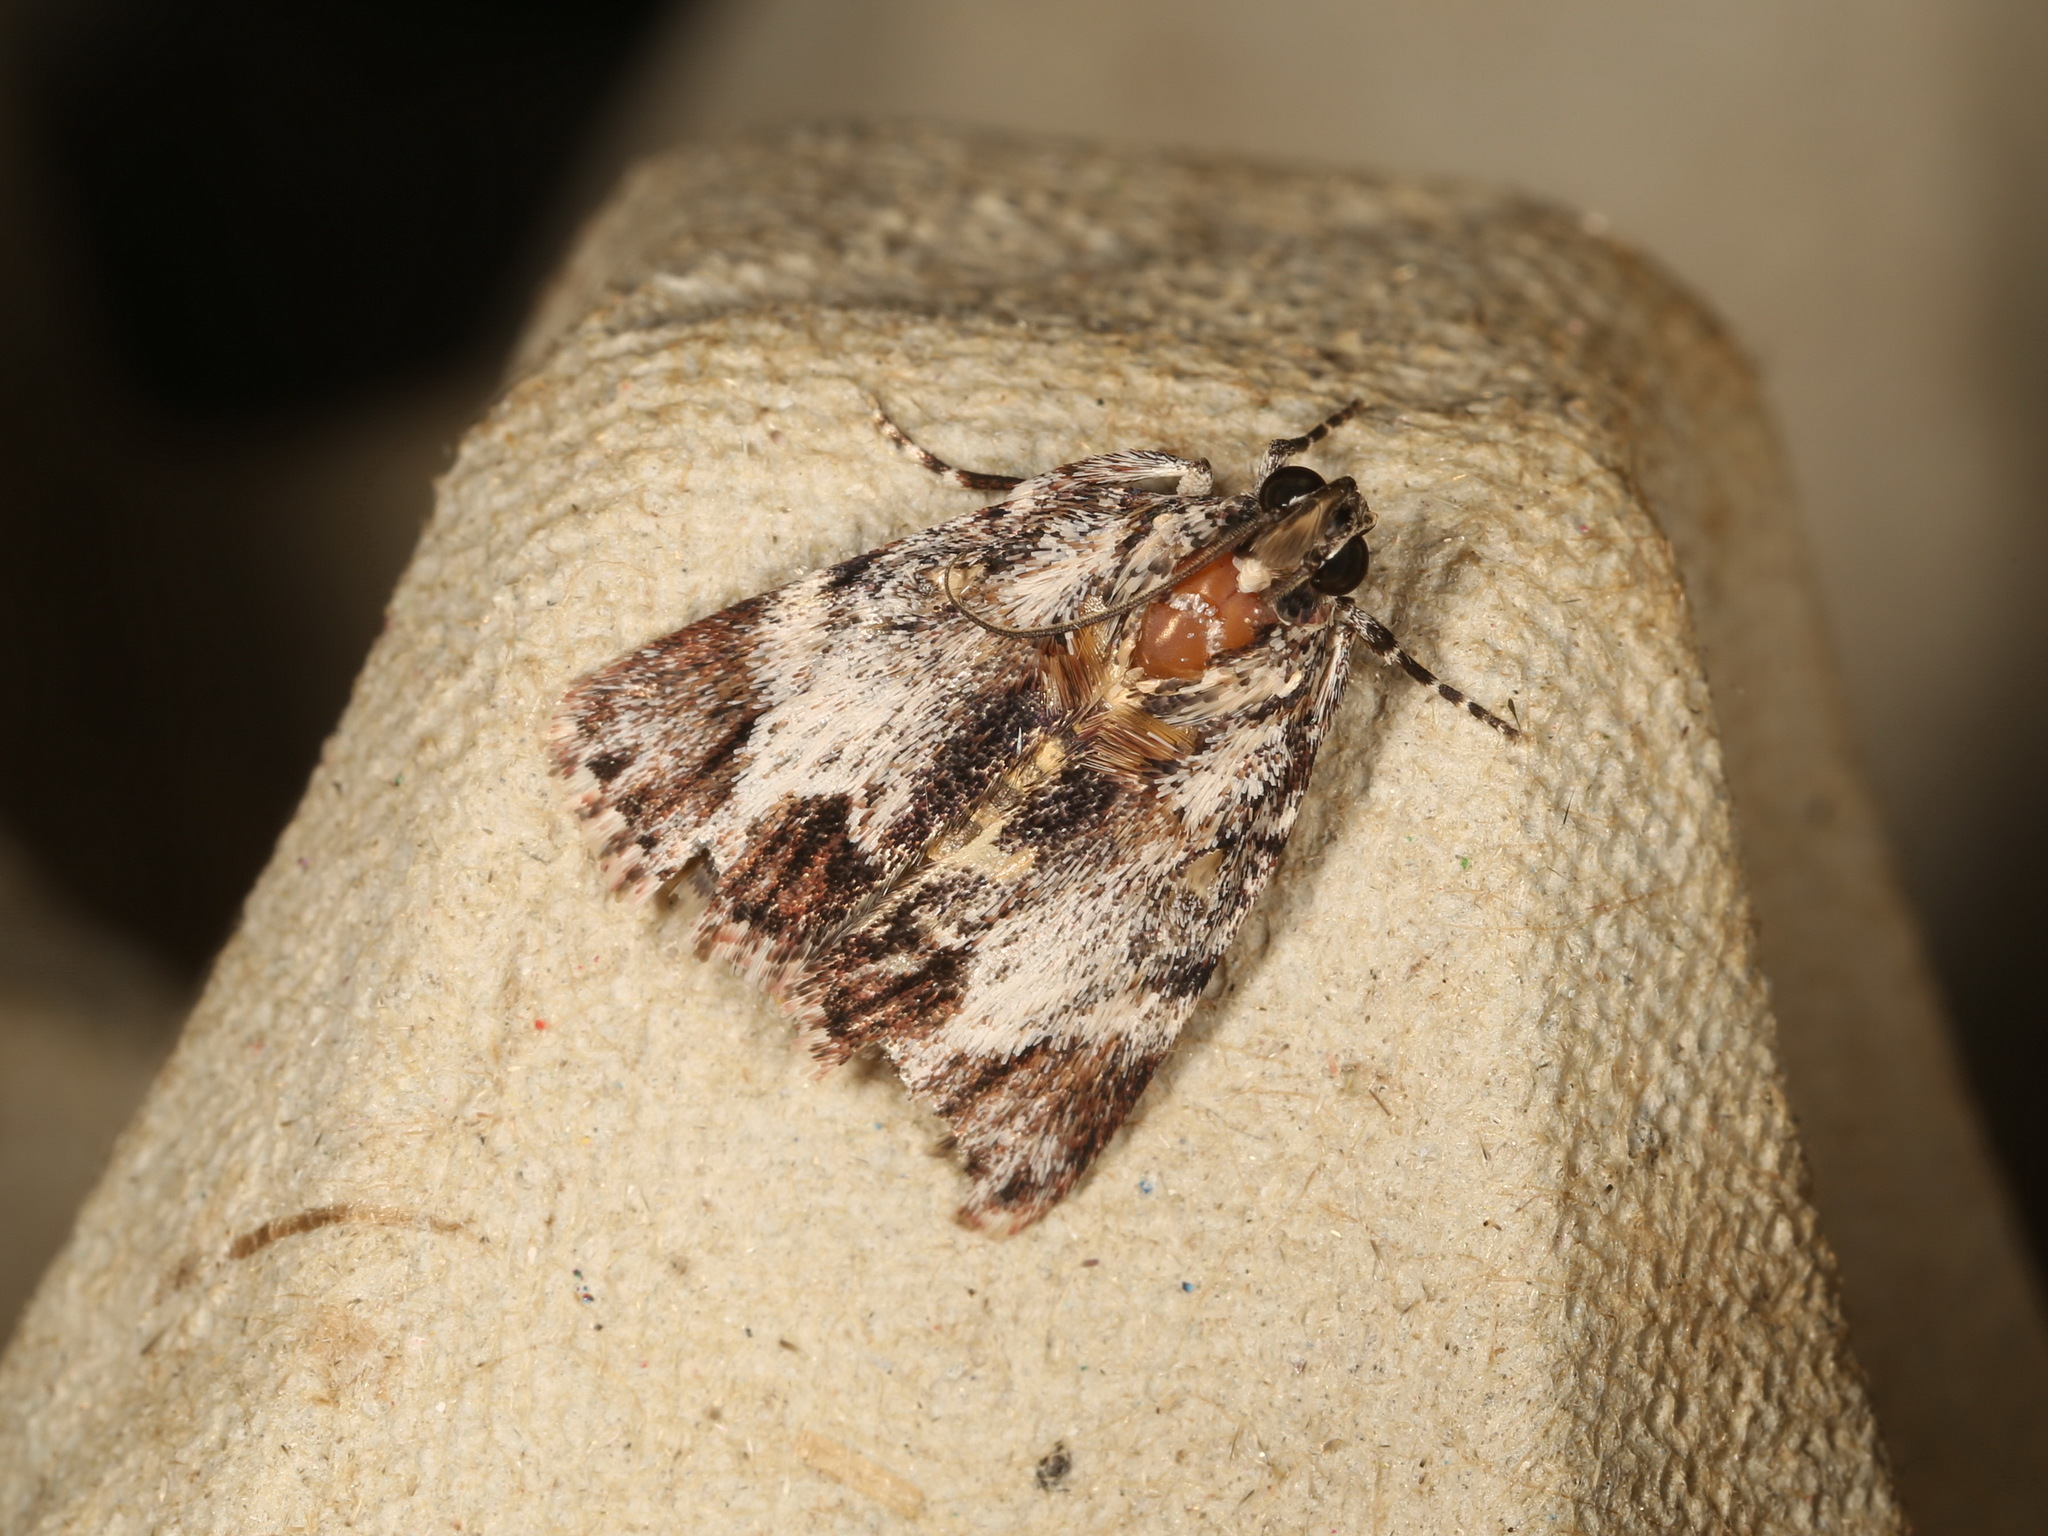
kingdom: Animalia
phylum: Arthropoda
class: Insecta
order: Lepidoptera
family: Pyralidae
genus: Spectrotrota
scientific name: Spectrotrota fimbrialis
